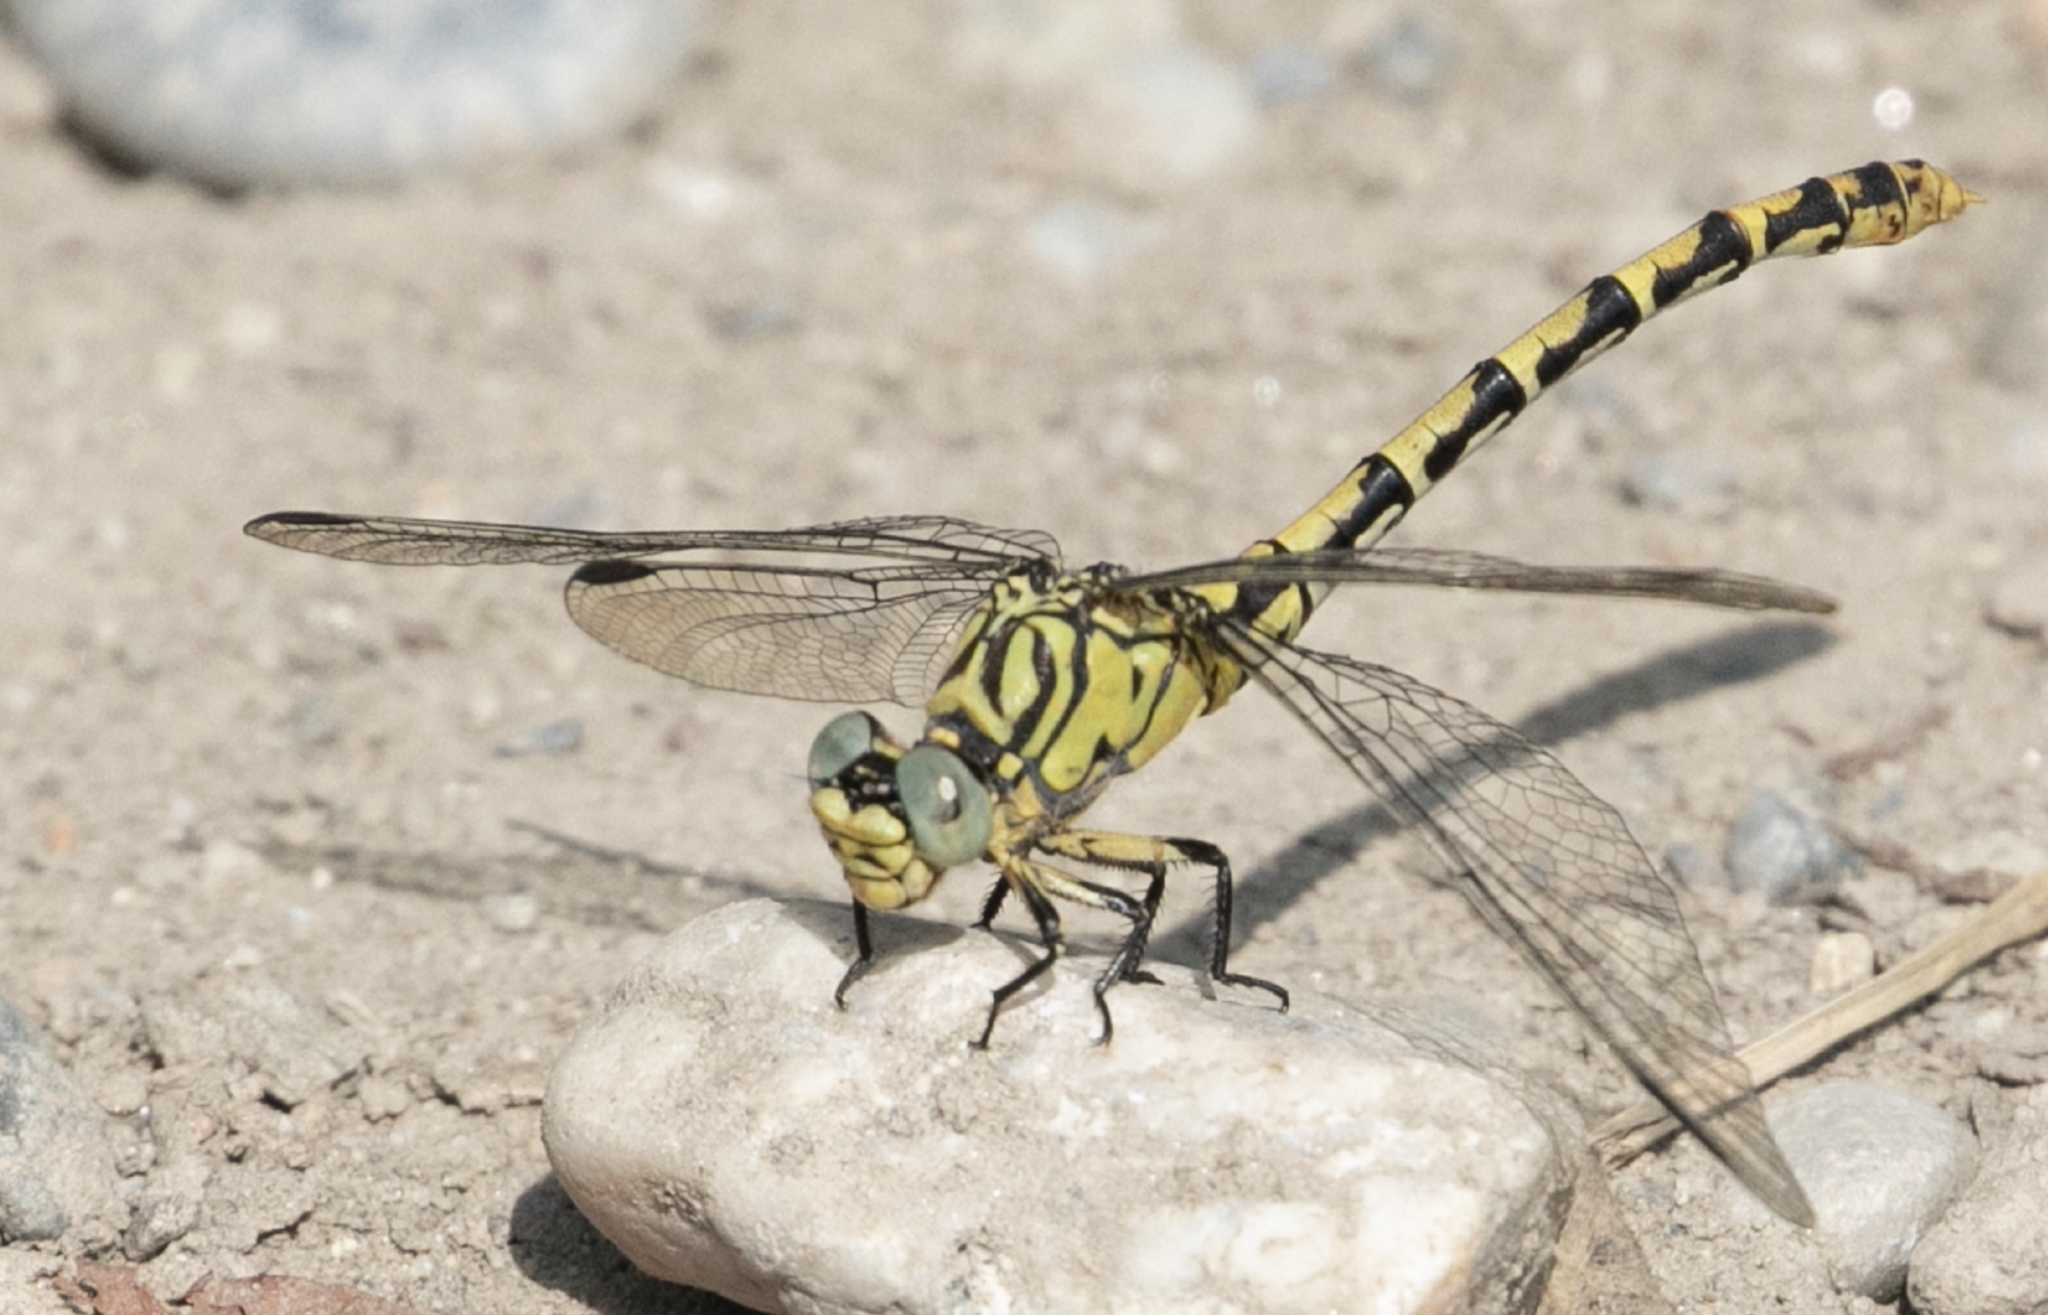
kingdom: Animalia
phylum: Arthropoda
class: Insecta
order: Odonata
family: Gomphidae
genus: Onychogomphus
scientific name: Onychogomphus forcipatus
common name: Small pincertail
